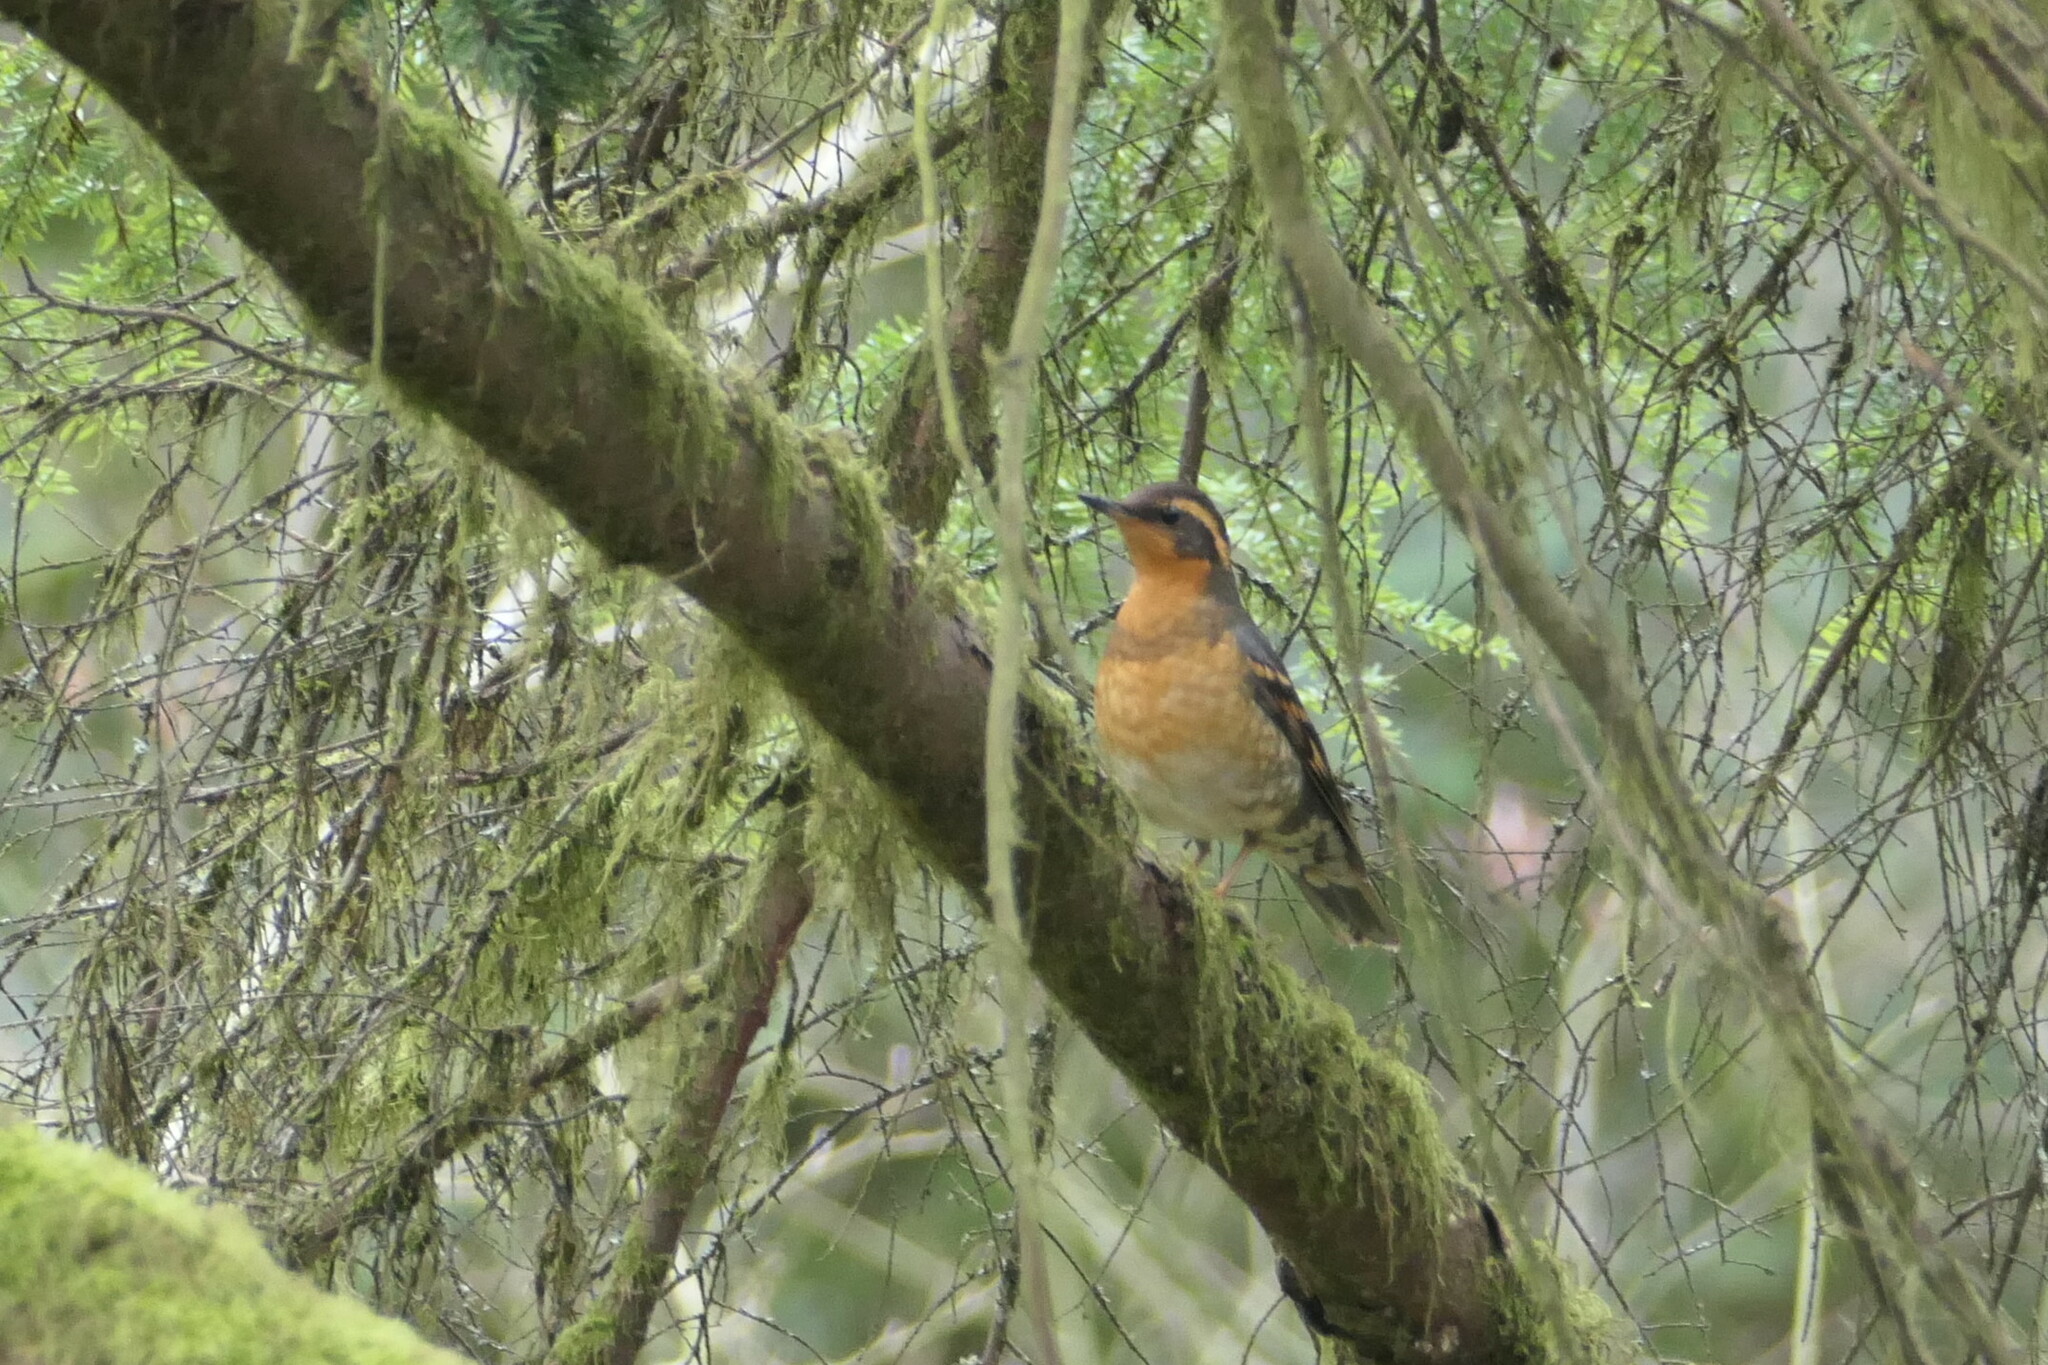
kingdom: Animalia
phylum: Chordata
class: Aves
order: Passeriformes
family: Turdidae
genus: Ixoreus
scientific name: Ixoreus naevius
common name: Varied thrush
